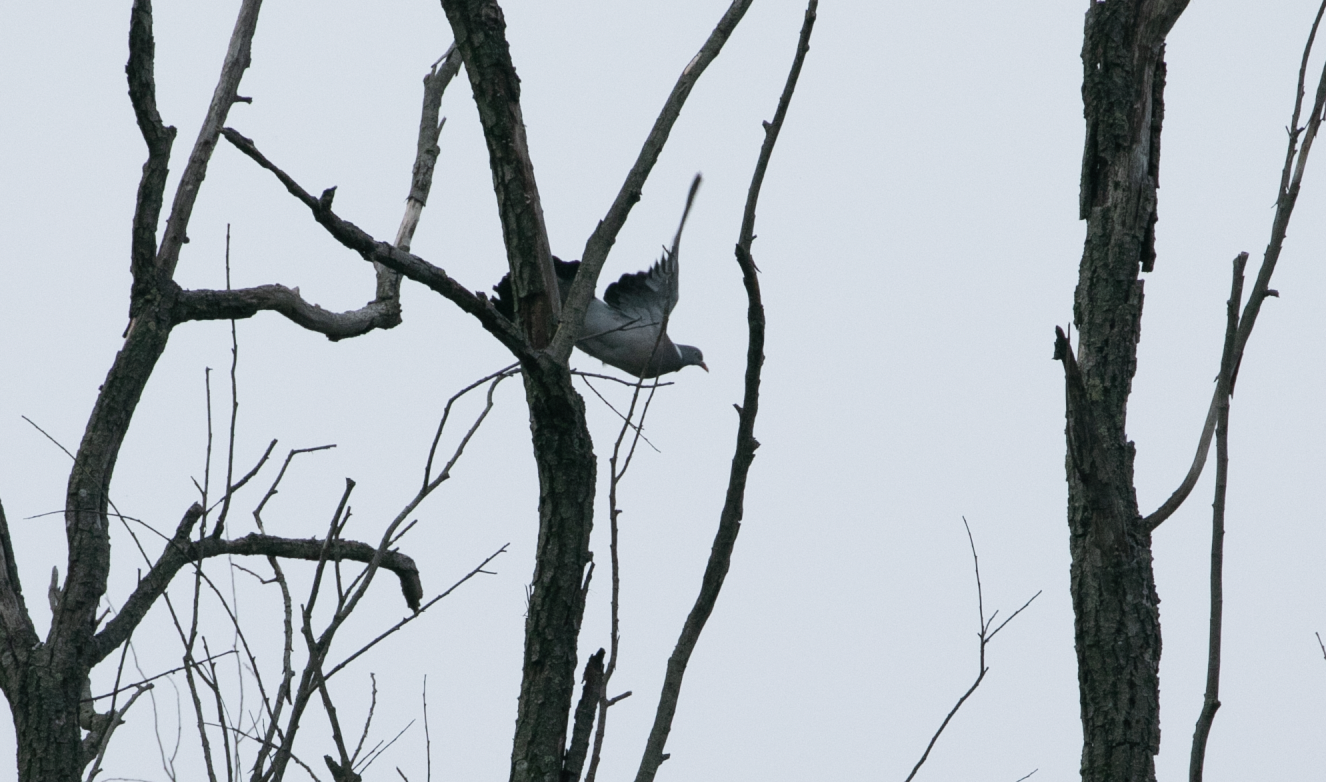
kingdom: Animalia
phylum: Chordata
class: Aves
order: Columbiformes
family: Columbidae
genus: Columba
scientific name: Columba palumbus
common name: Common wood pigeon
